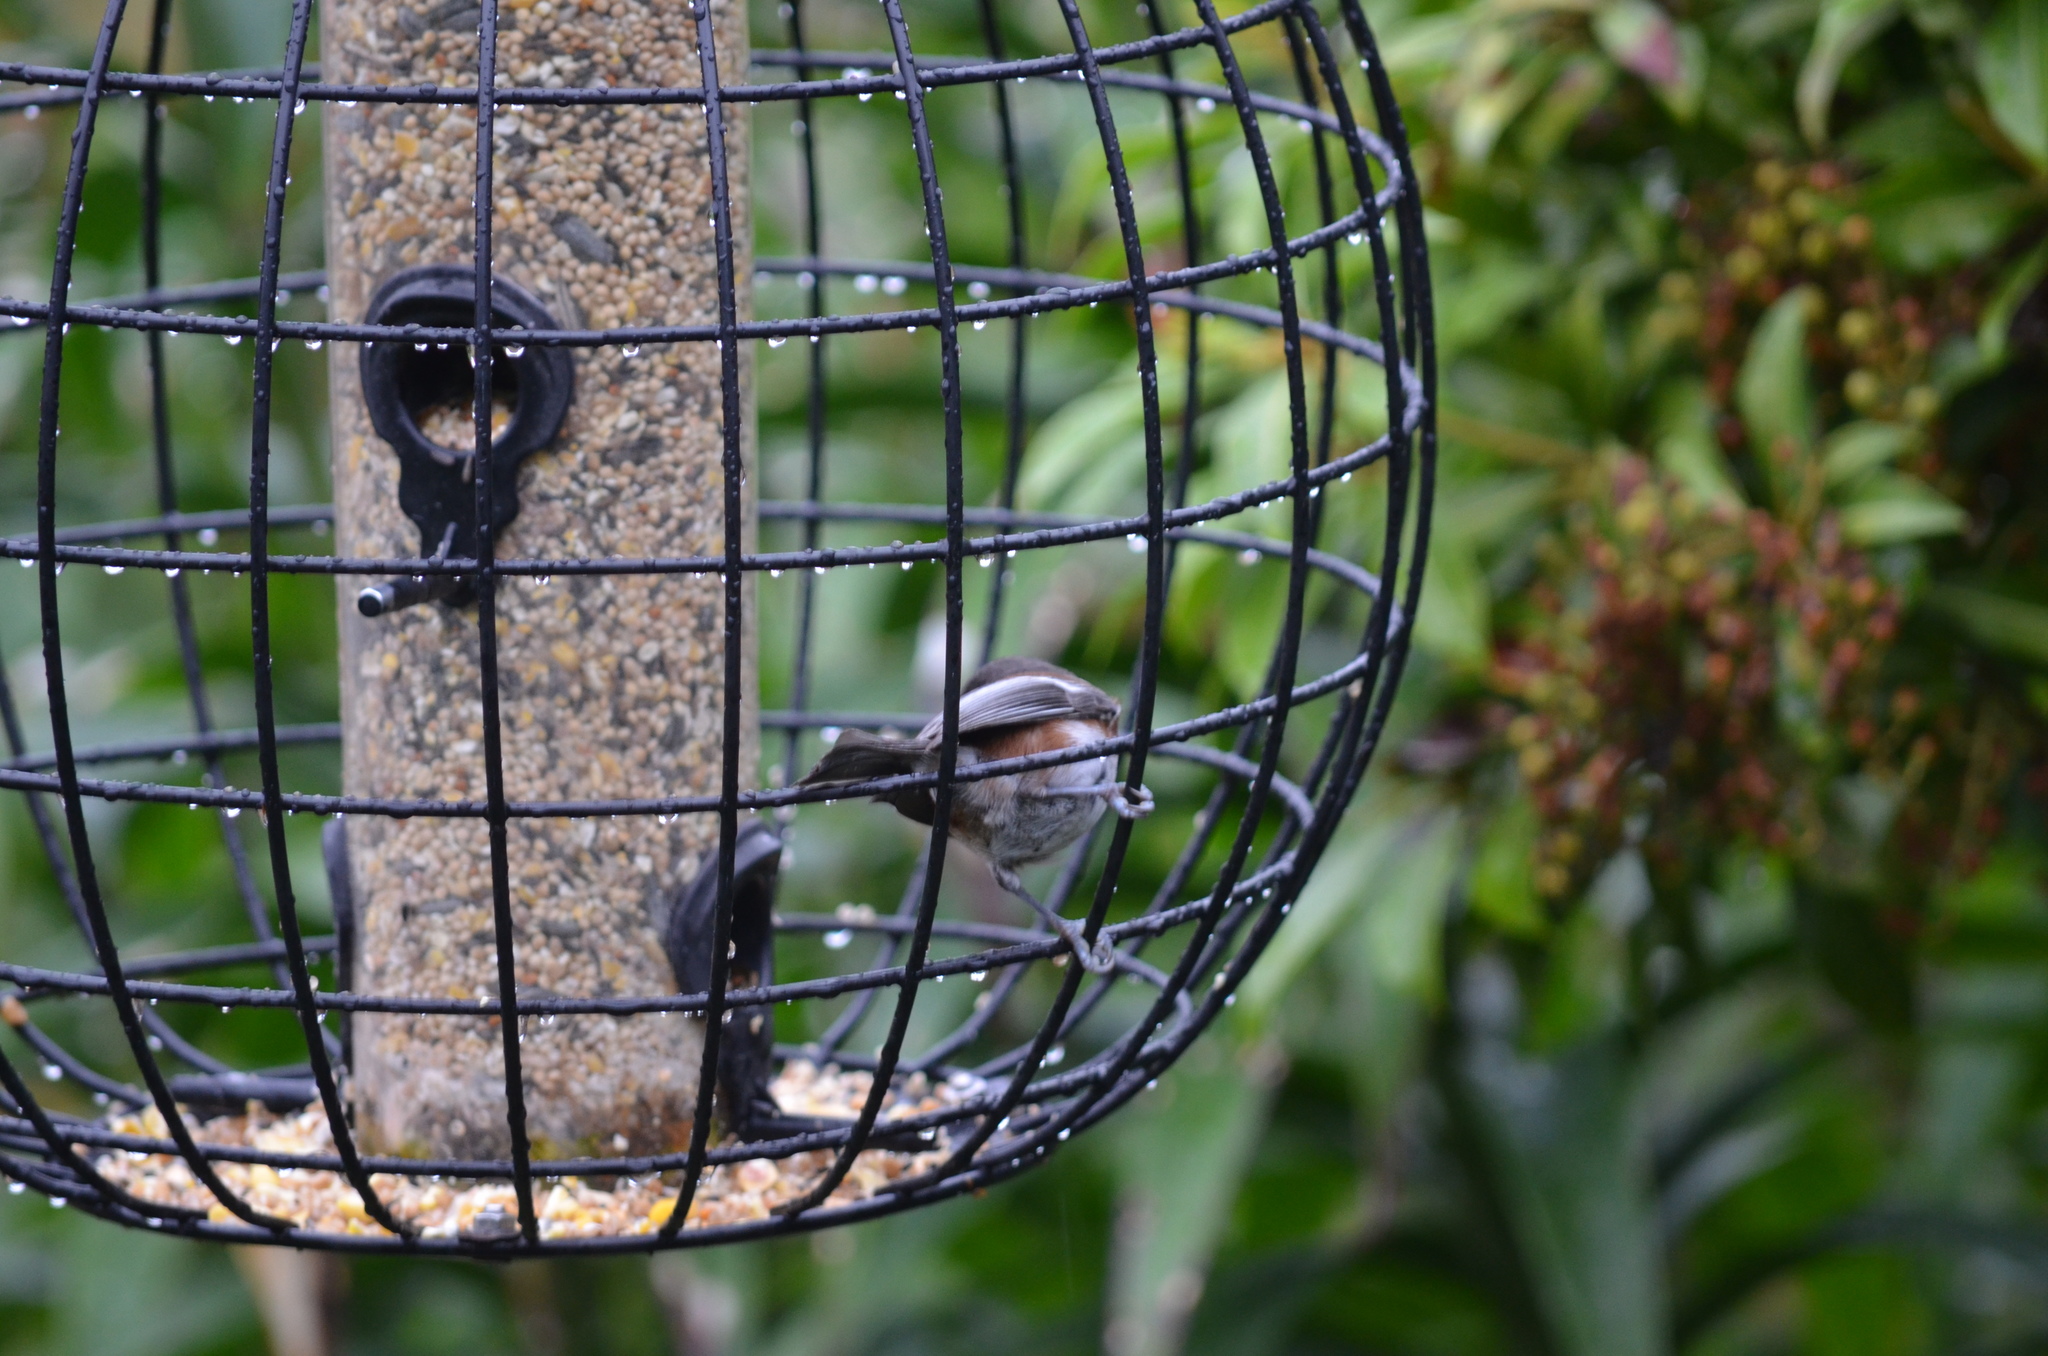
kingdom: Animalia
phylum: Chordata
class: Aves
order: Passeriformes
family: Paridae
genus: Poecile
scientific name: Poecile rufescens
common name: Chestnut-backed chickadee
